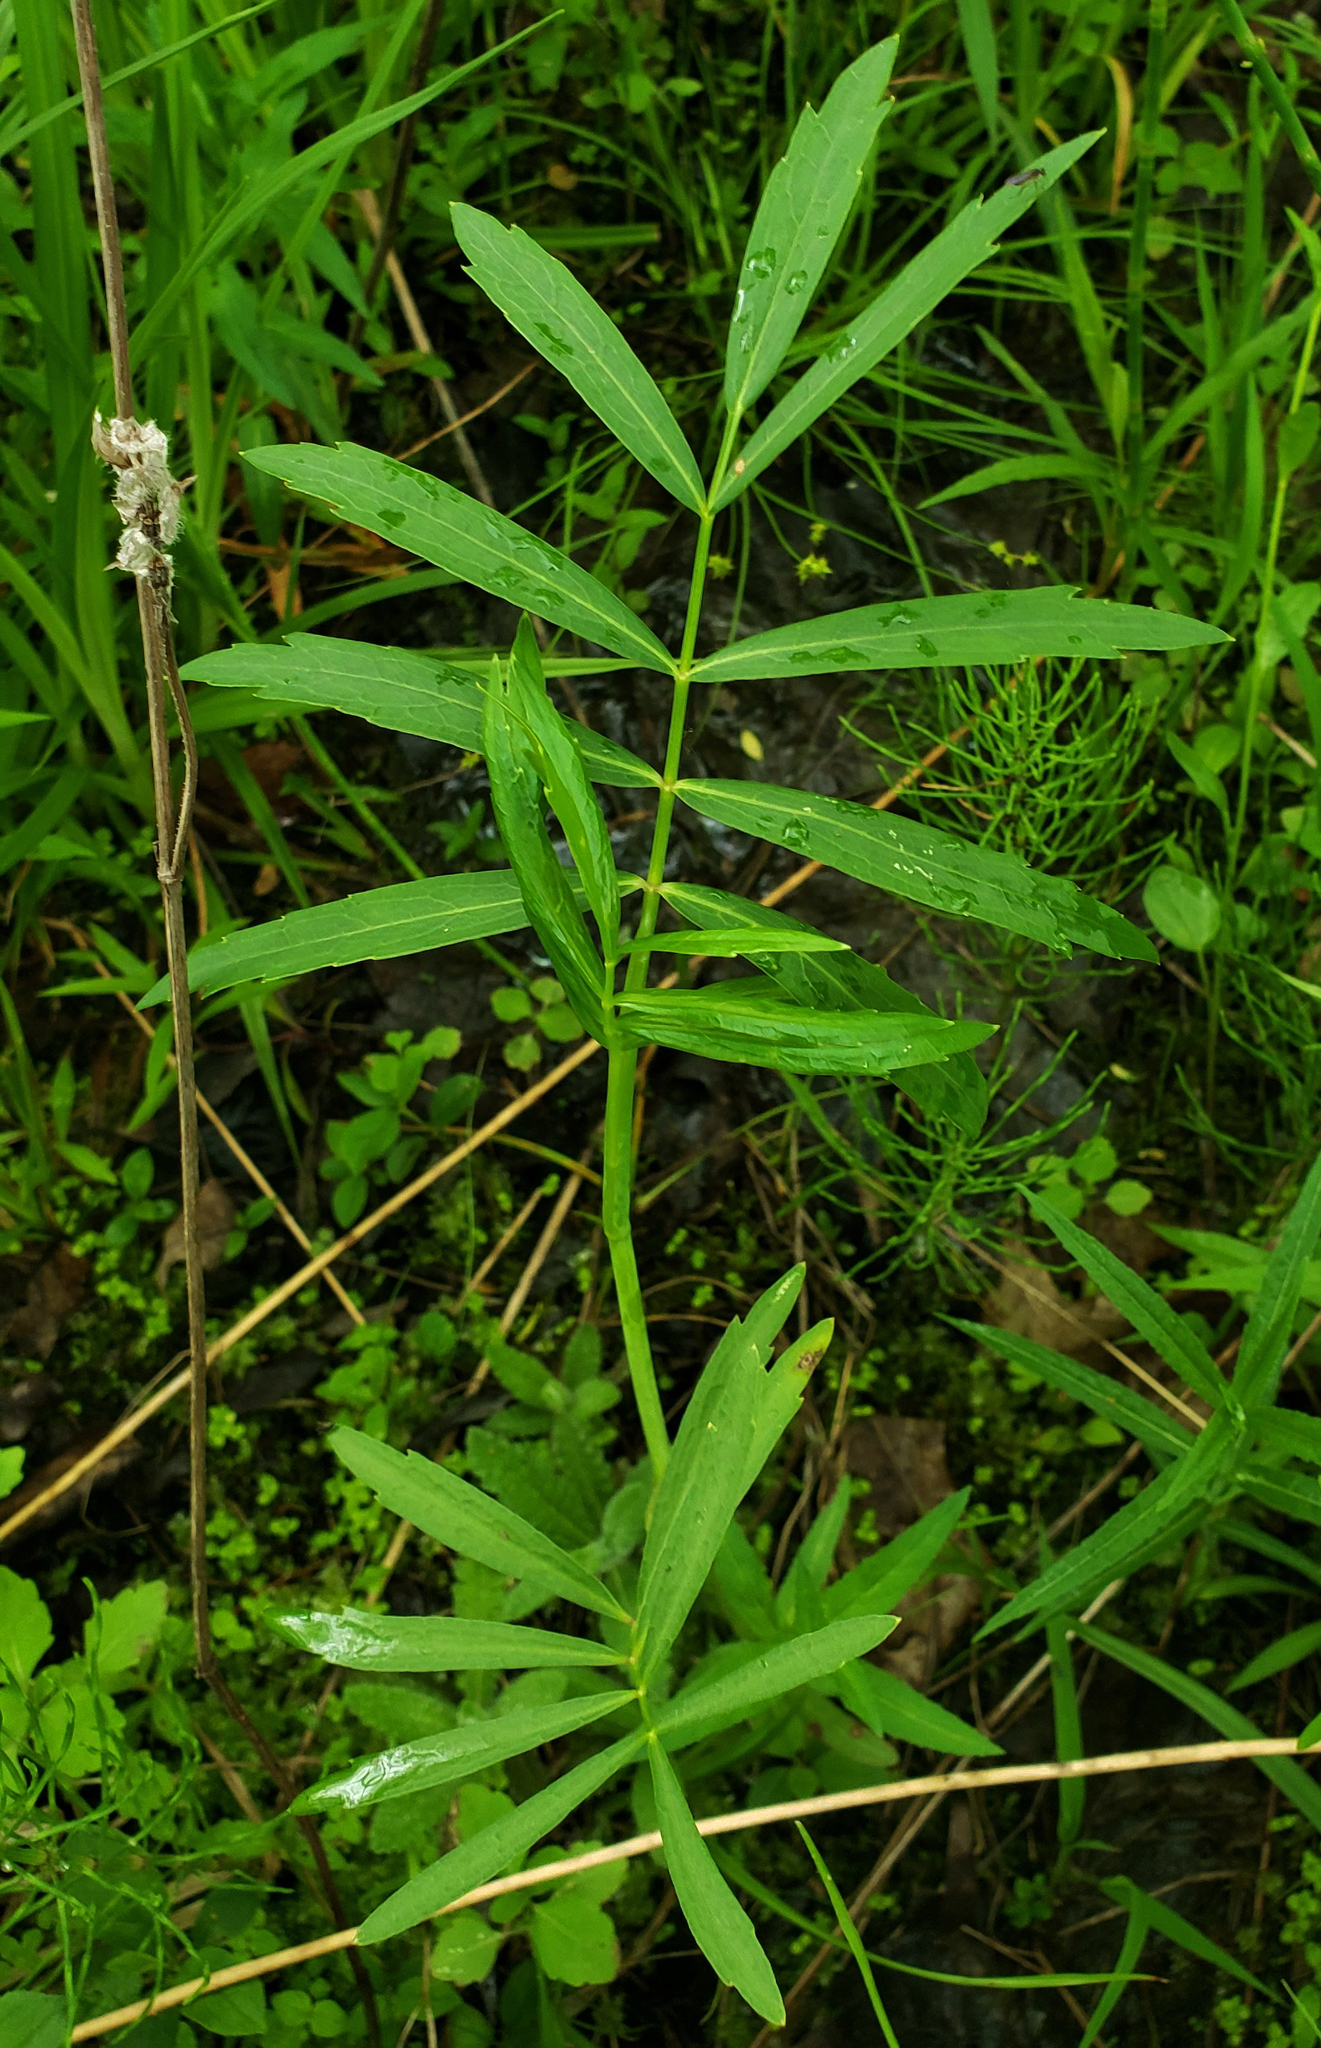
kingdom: Plantae
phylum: Tracheophyta
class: Magnoliopsida
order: Apiales
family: Apiaceae
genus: Oxypolis
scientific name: Oxypolis rigidior
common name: Cowbane
